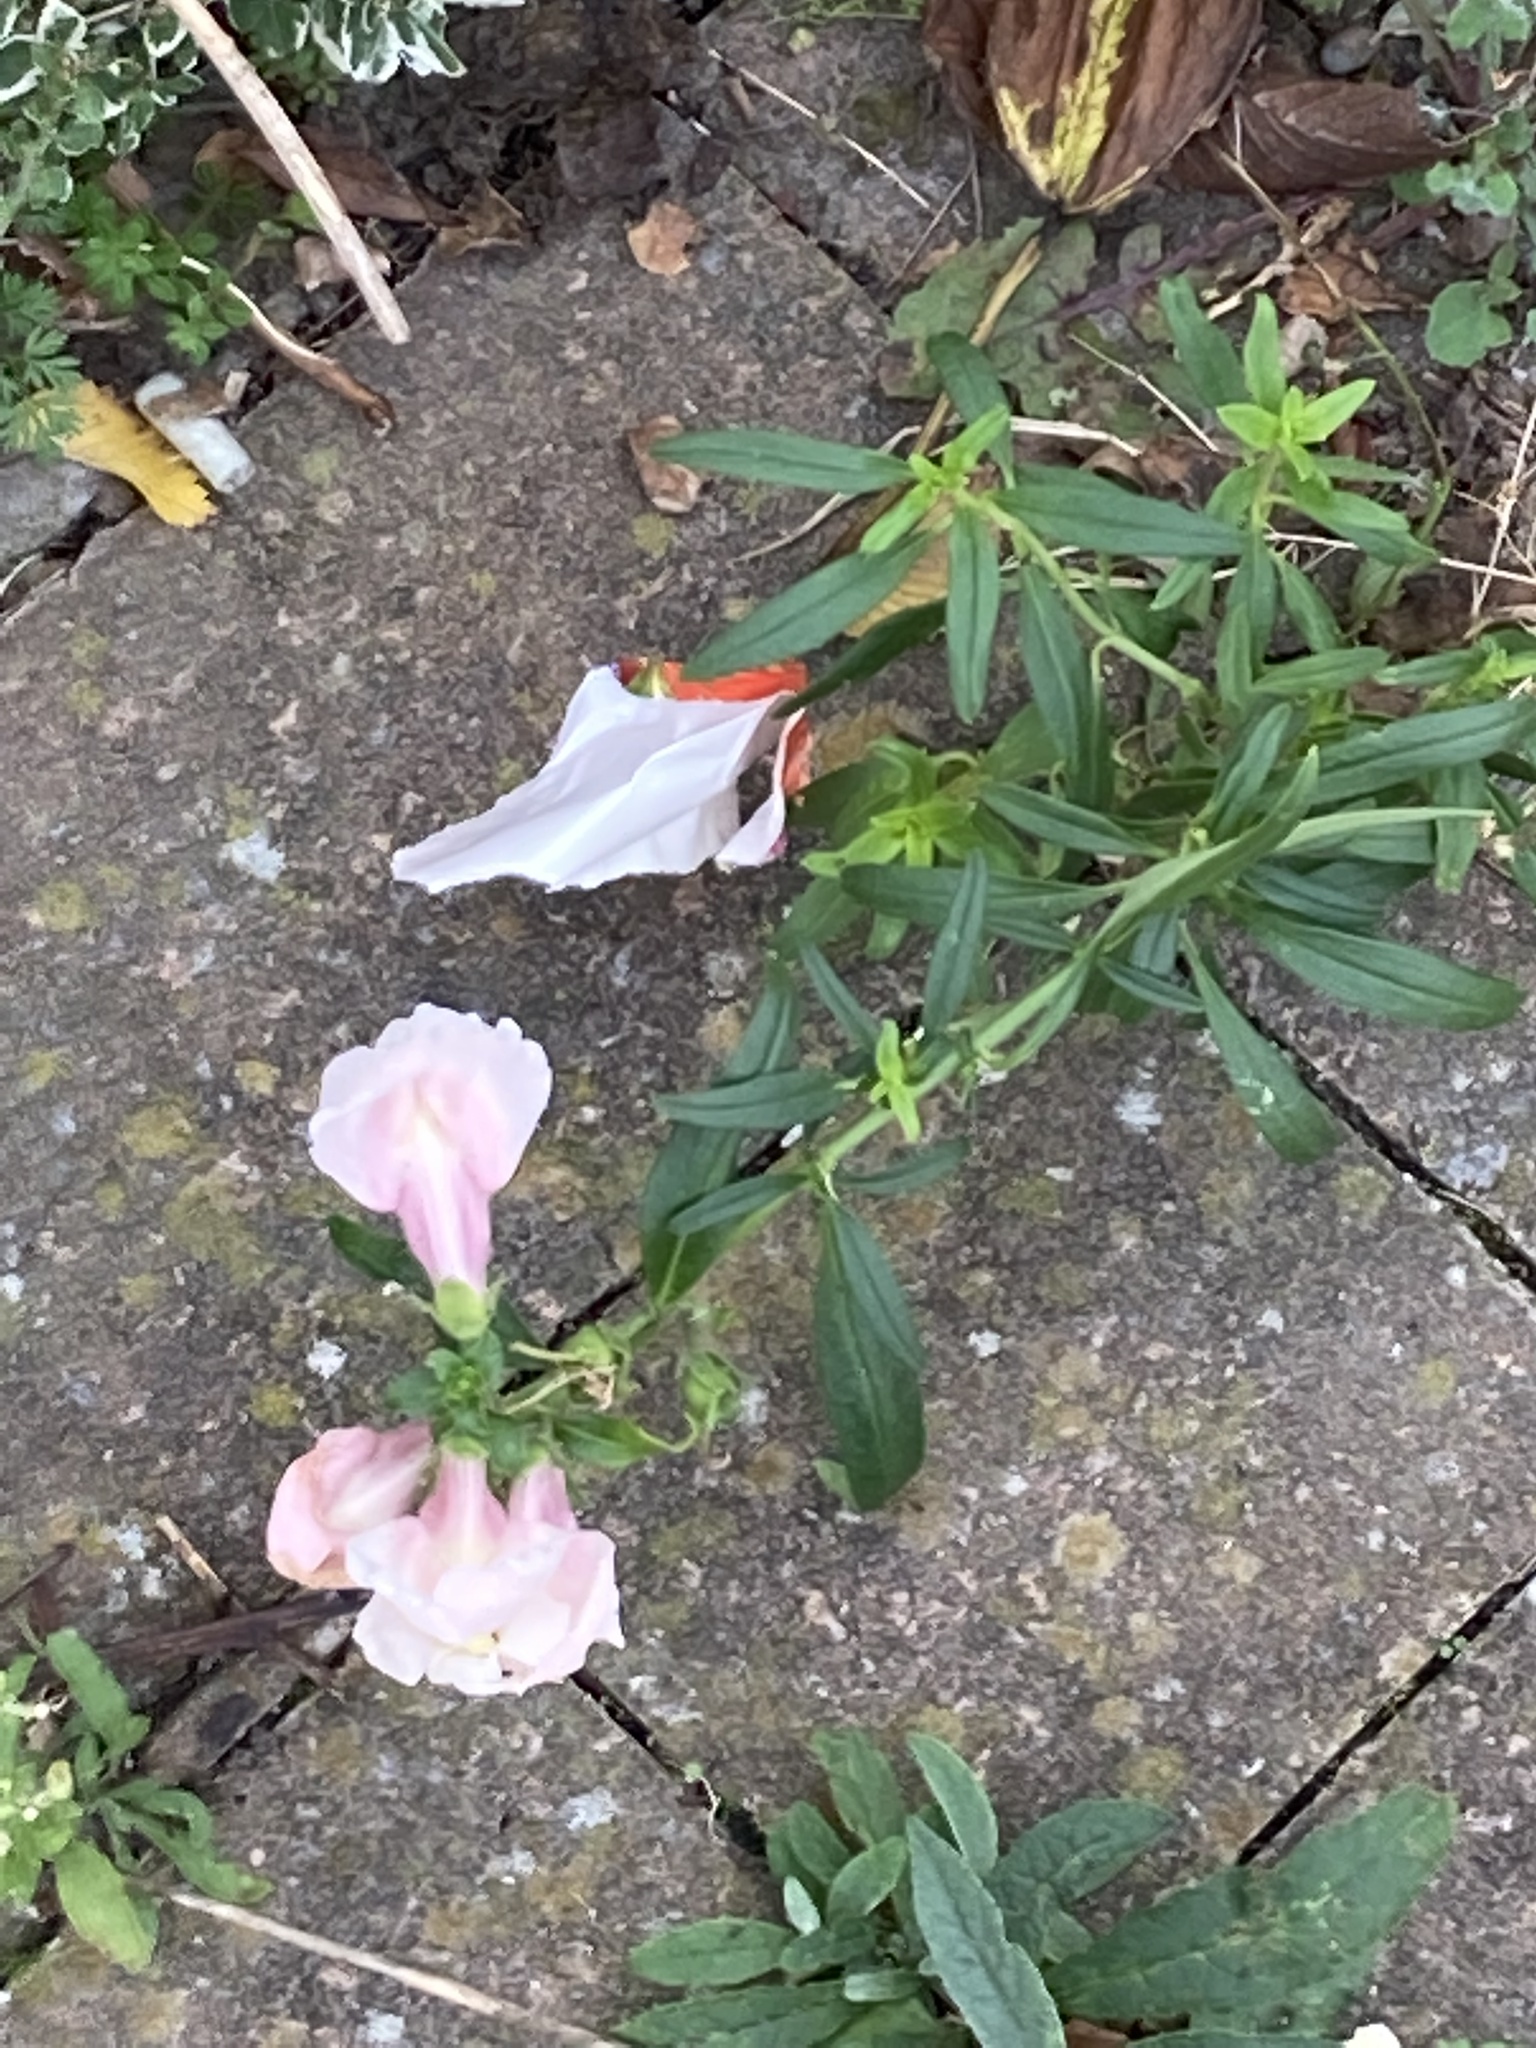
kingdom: Plantae
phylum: Tracheophyta
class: Magnoliopsida
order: Lamiales
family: Plantaginaceae
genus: Antirrhinum
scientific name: Antirrhinum majus
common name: Snapdragon
